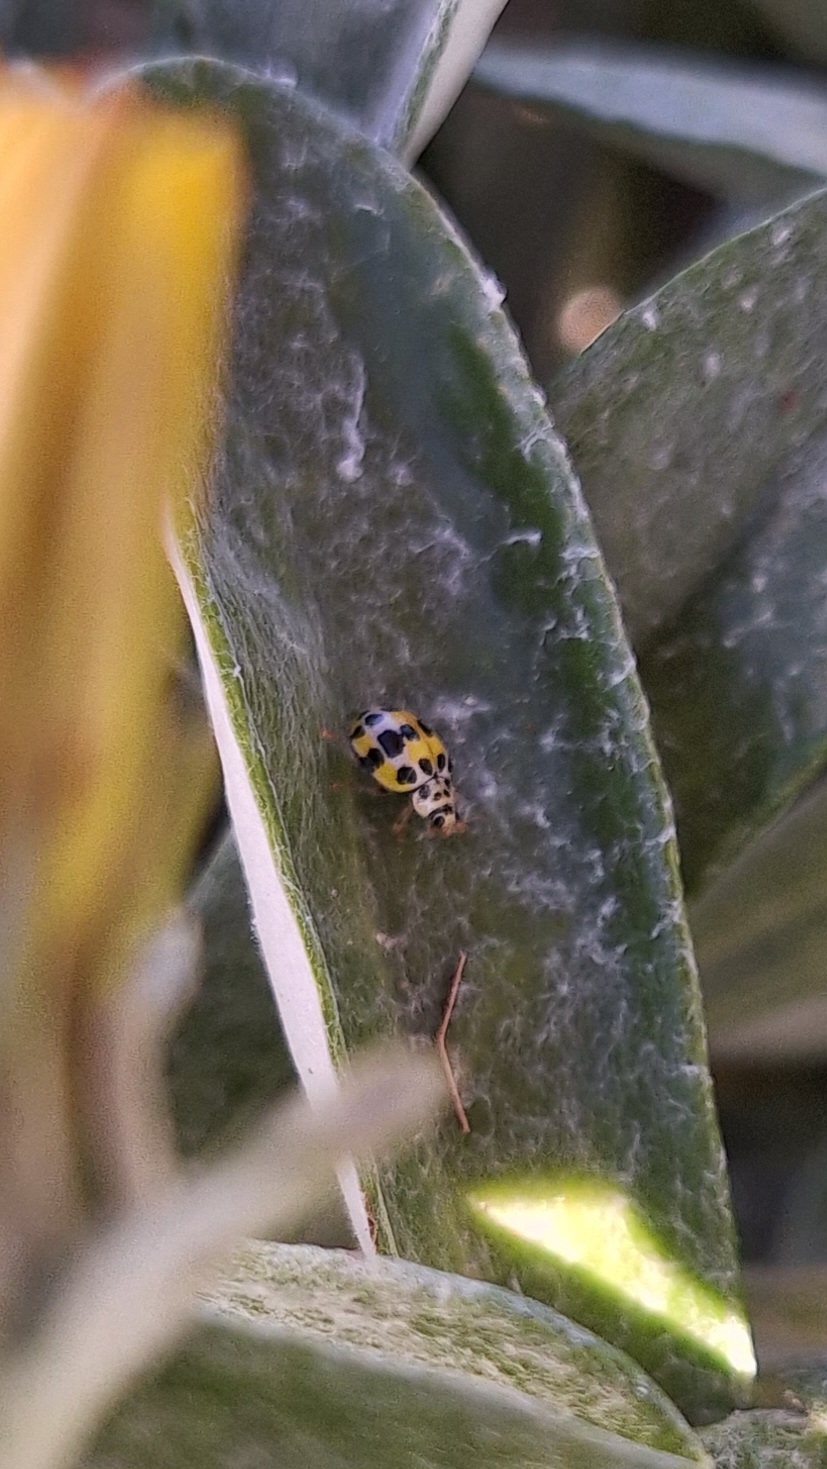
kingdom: Animalia
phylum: Arthropoda
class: Insecta
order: Coleoptera
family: Coccinellidae
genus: Psyllobora
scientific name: Psyllobora variegata
